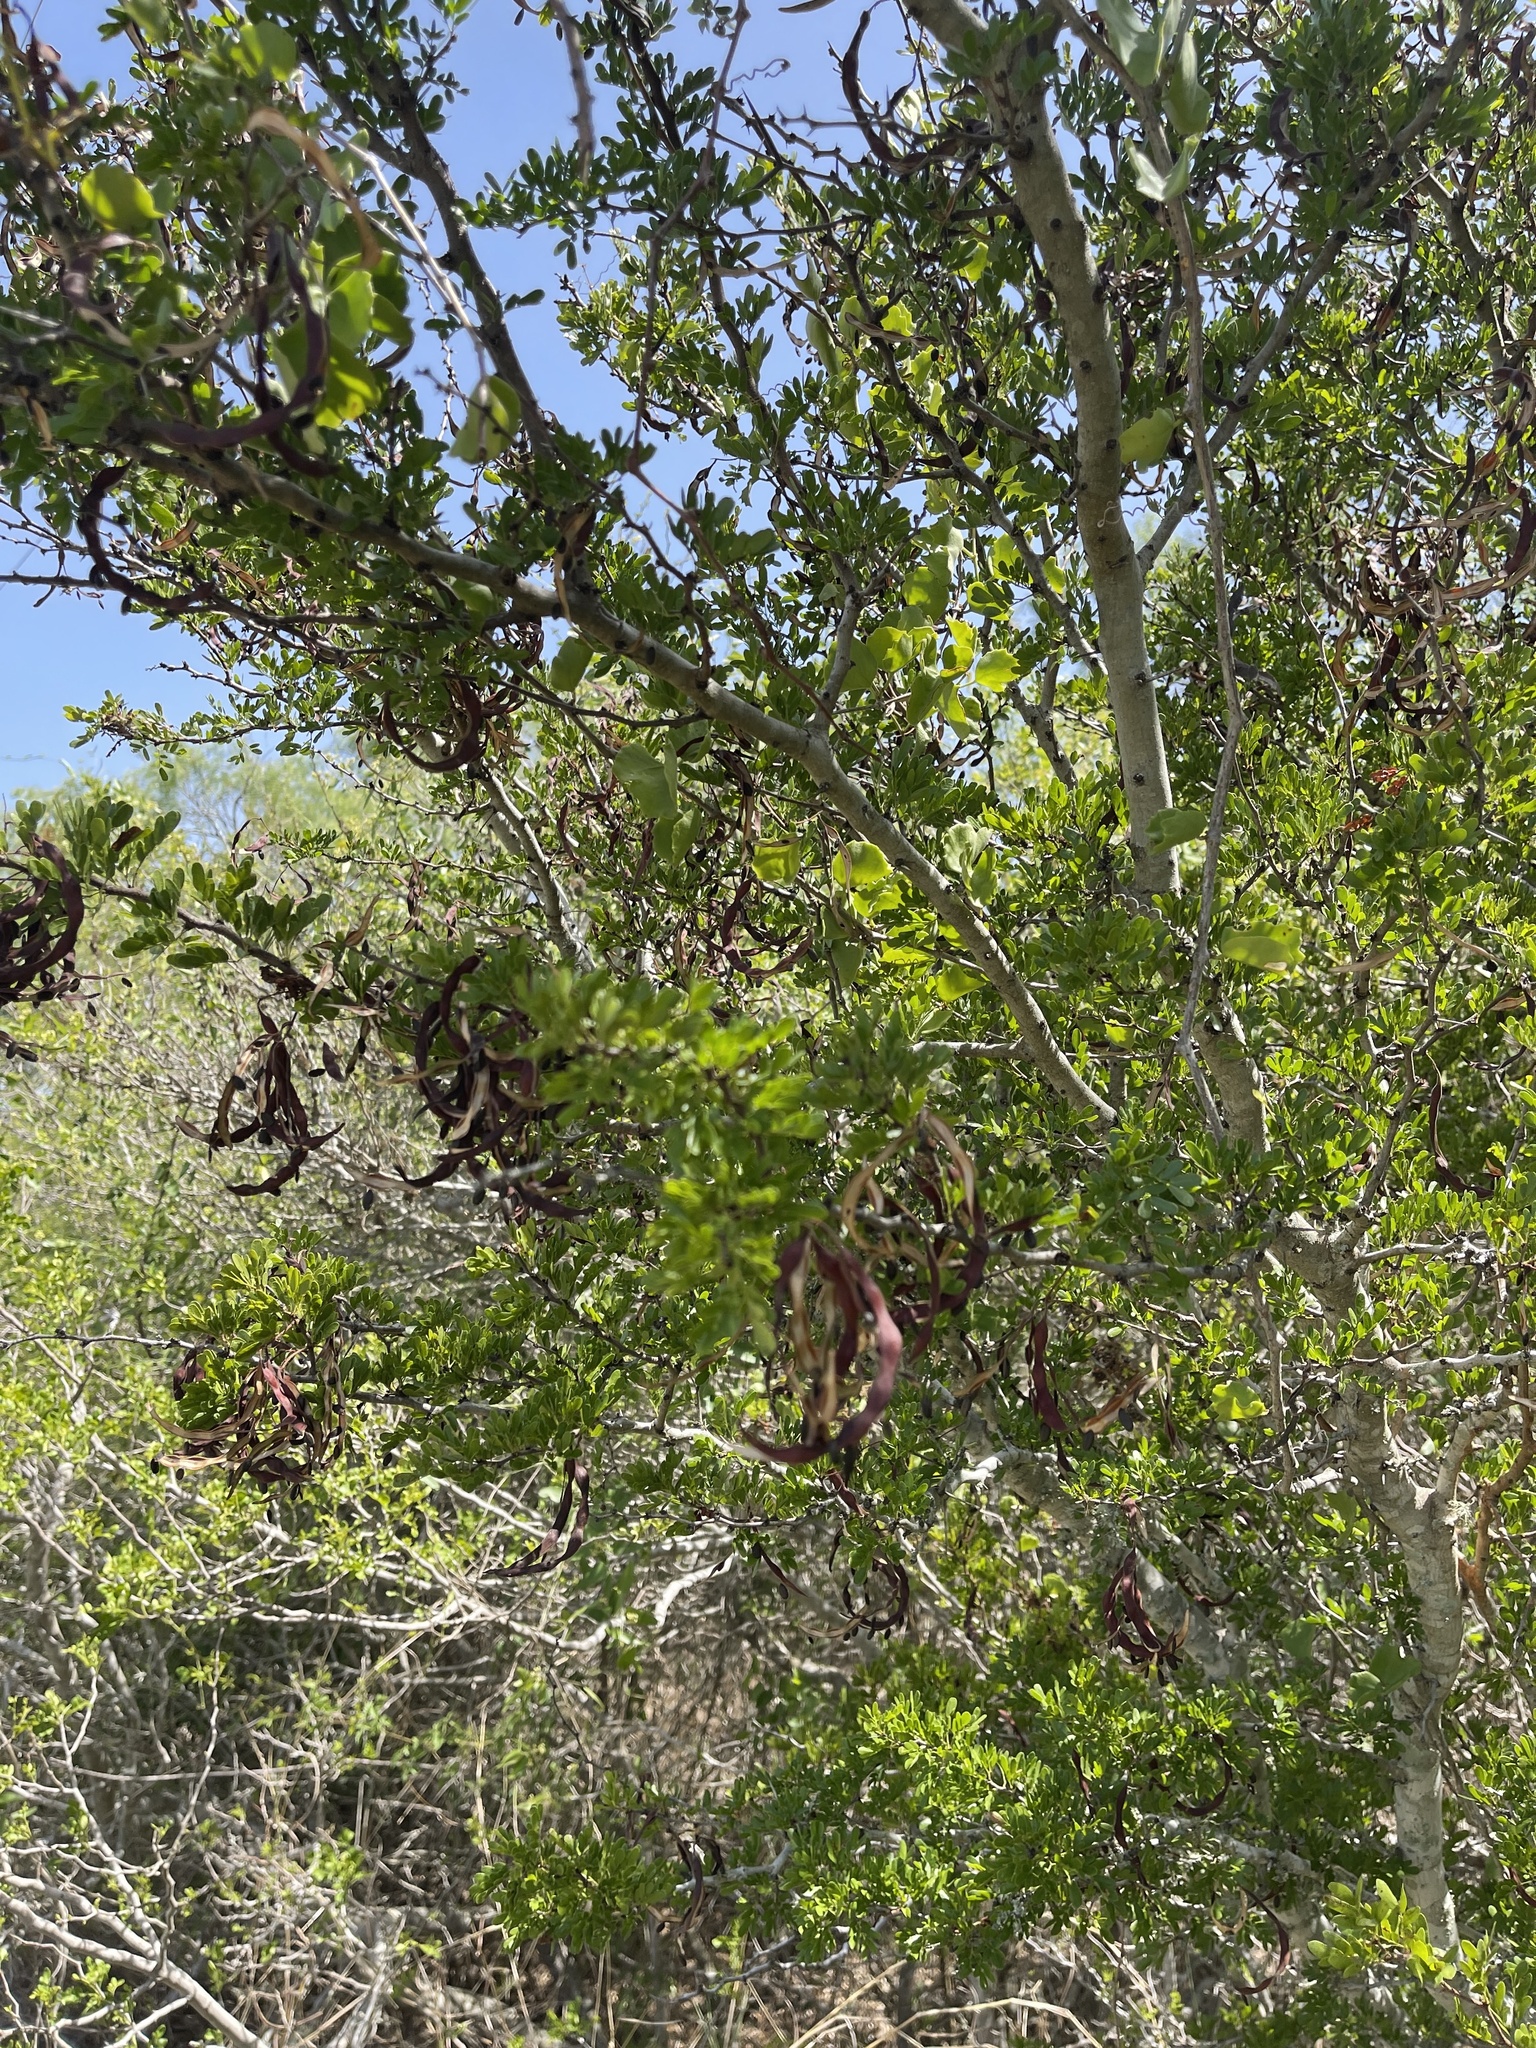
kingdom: Plantae
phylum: Tracheophyta
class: Magnoliopsida
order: Fabales
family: Fabaceae
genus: Vachellia
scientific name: Vachellia rigidula
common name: Blackbrush
